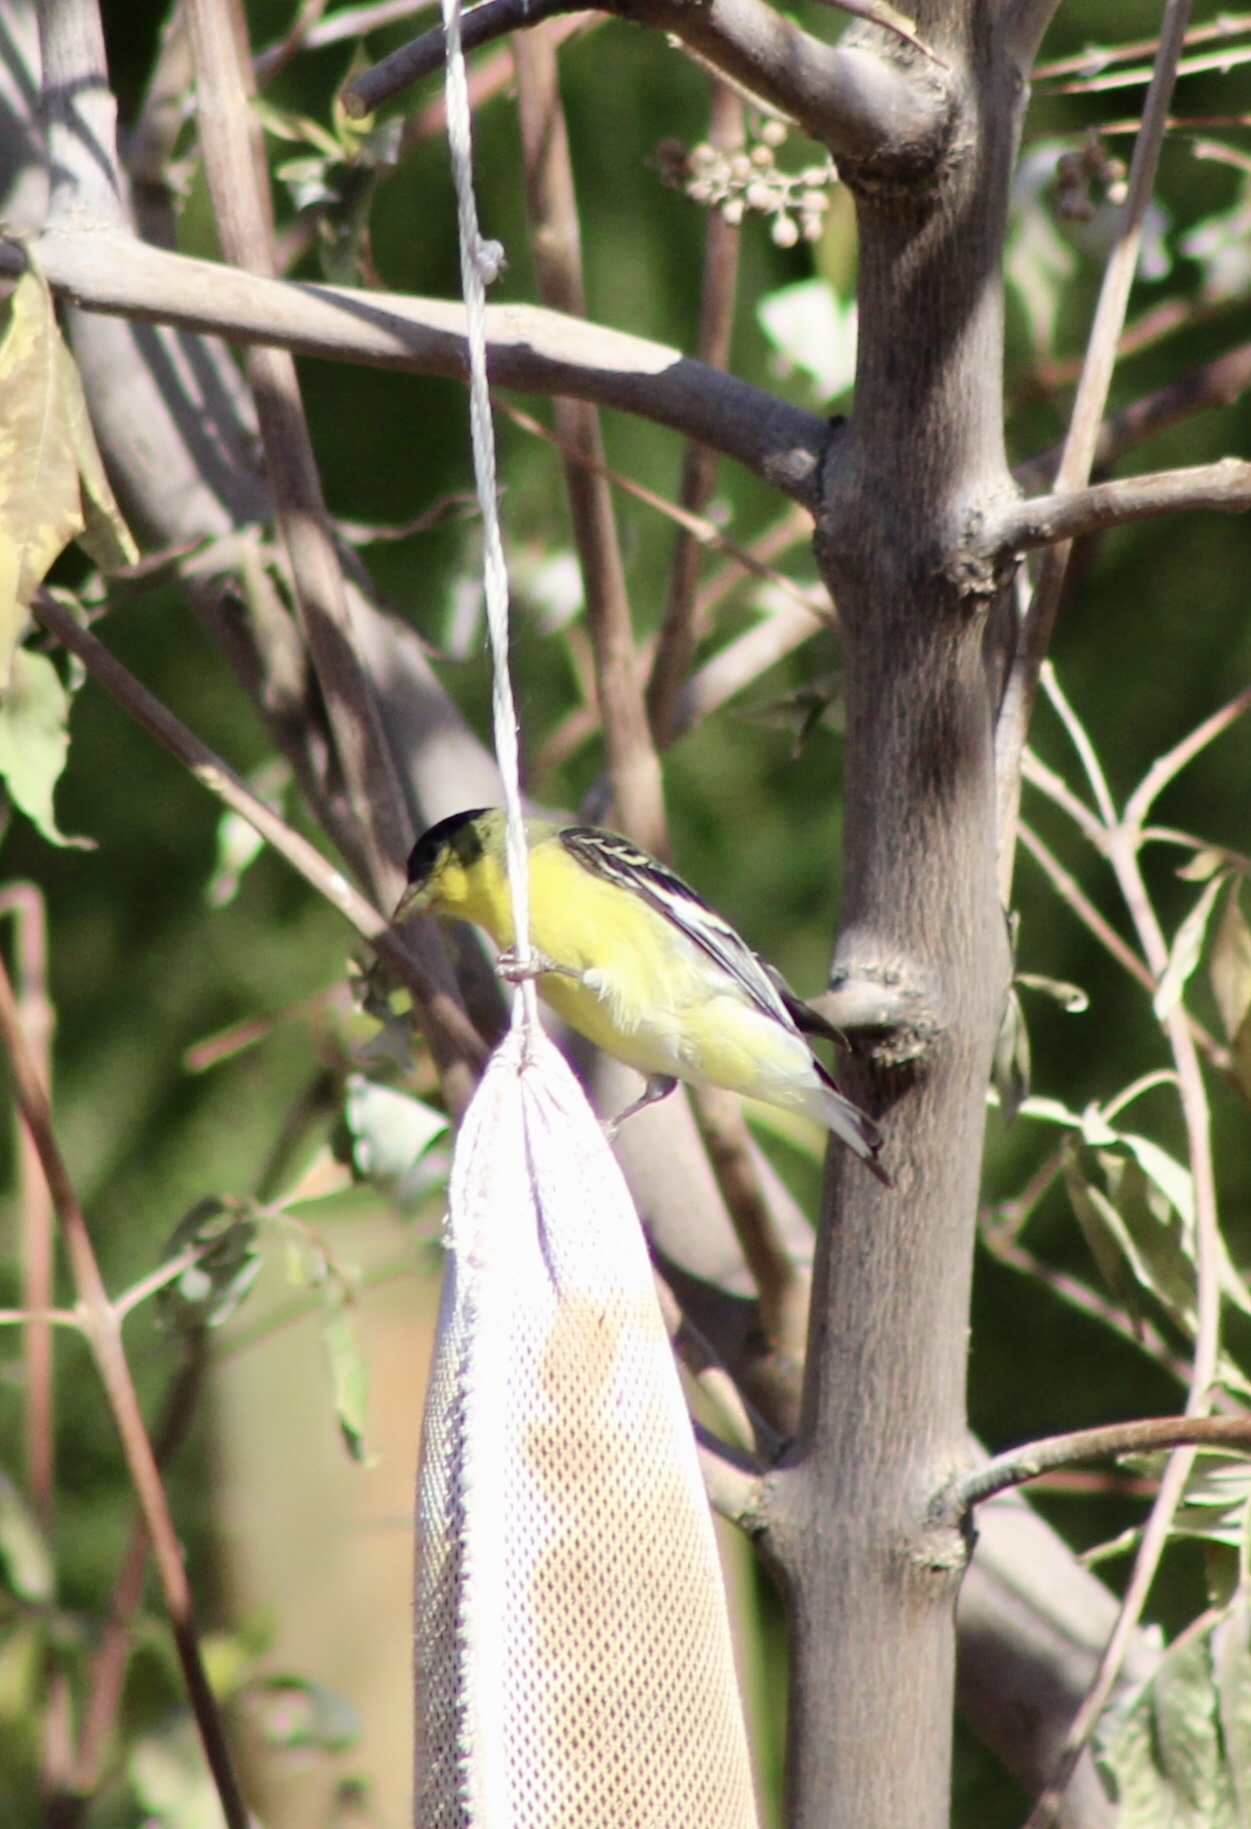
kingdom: Animalia
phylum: Chordata
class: Aves
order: Passeriformes
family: Fringillidae
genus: Spinus
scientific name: Spinus psaltria
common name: Lesser goldfinch
